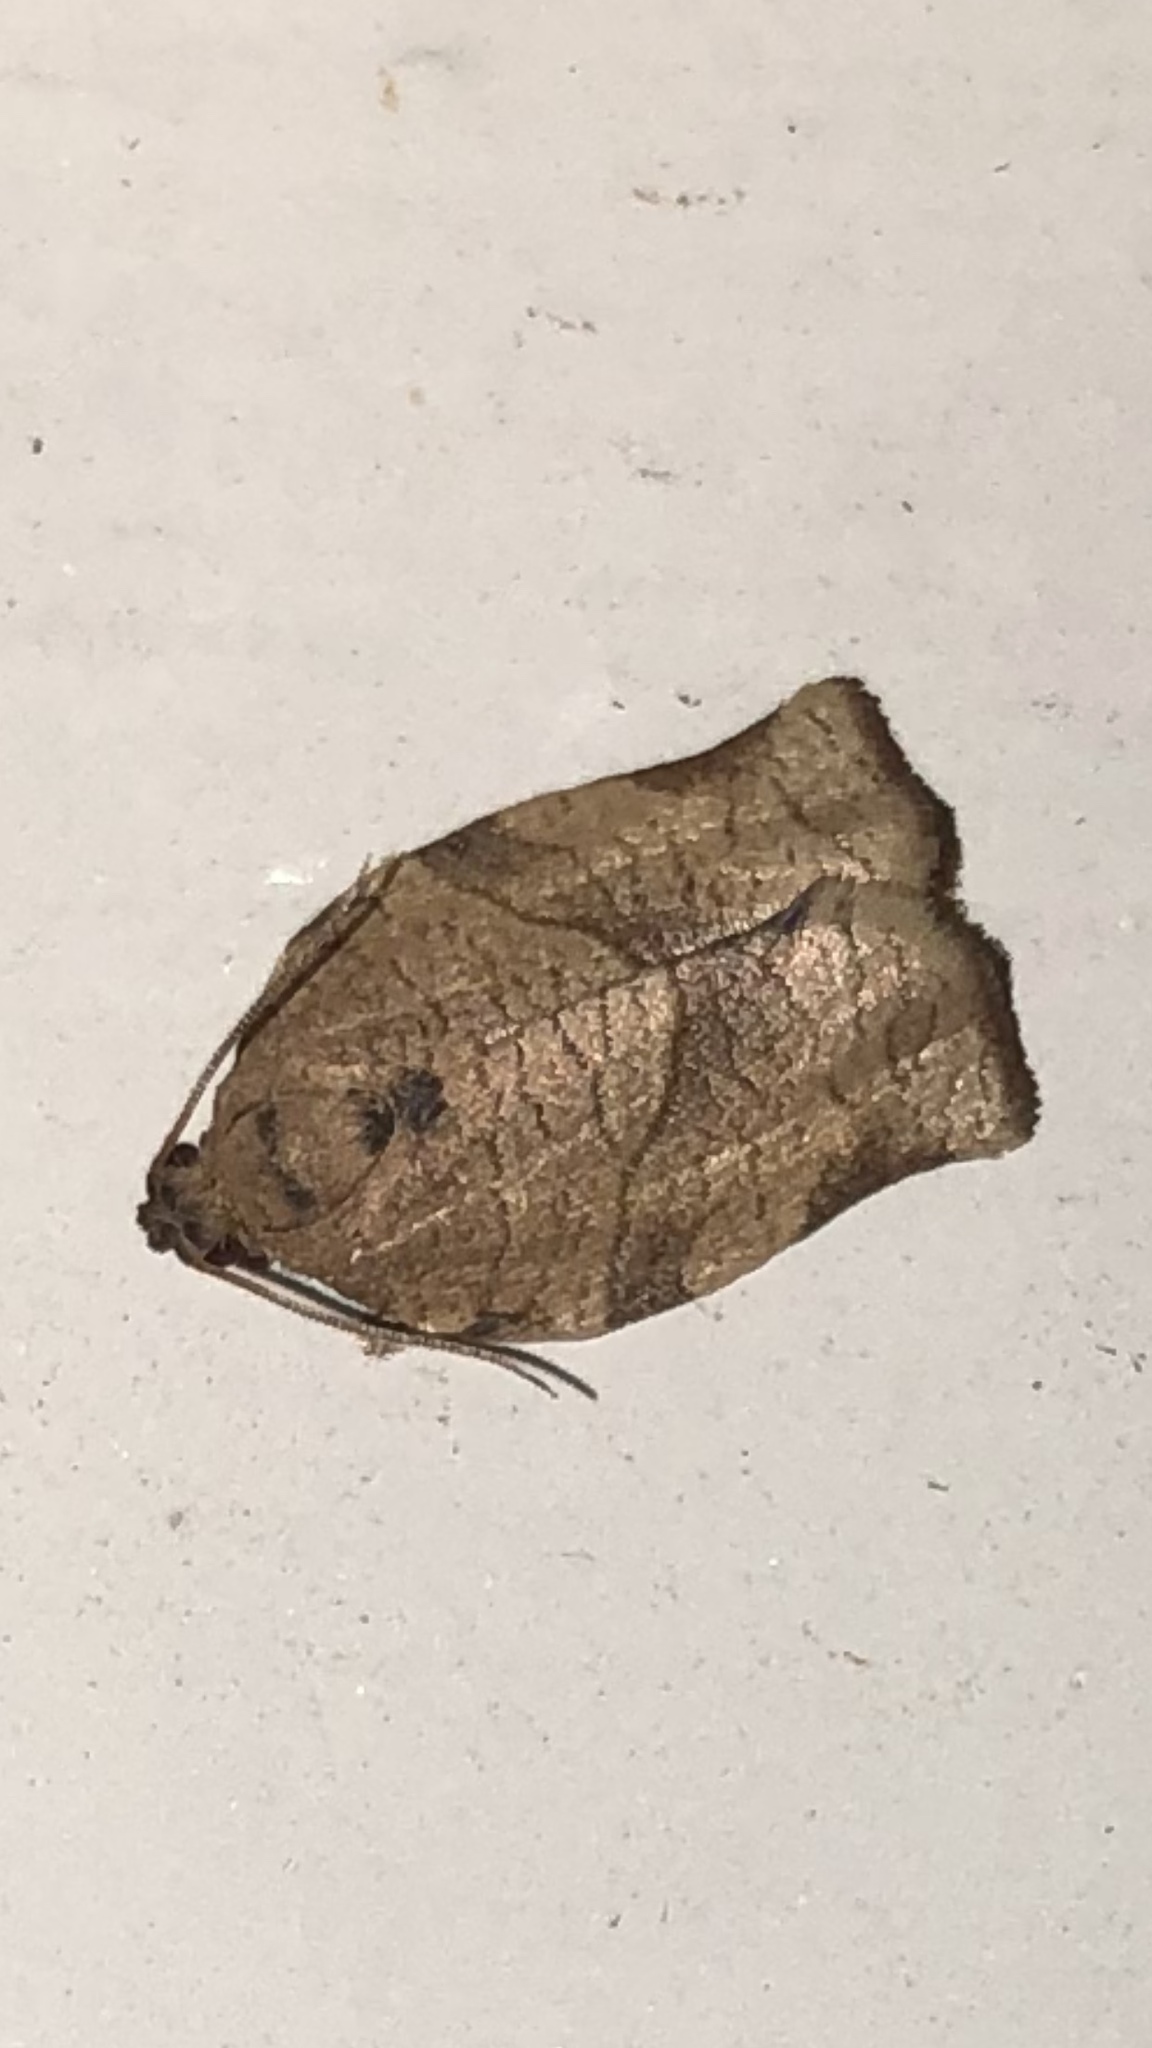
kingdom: Animalia
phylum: Arthropoda
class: Insecta
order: Lepidoptera
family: Tortricidae
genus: Choristoneura
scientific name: Choristoneura rosaceana
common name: Oblique-banded leafroller moth
